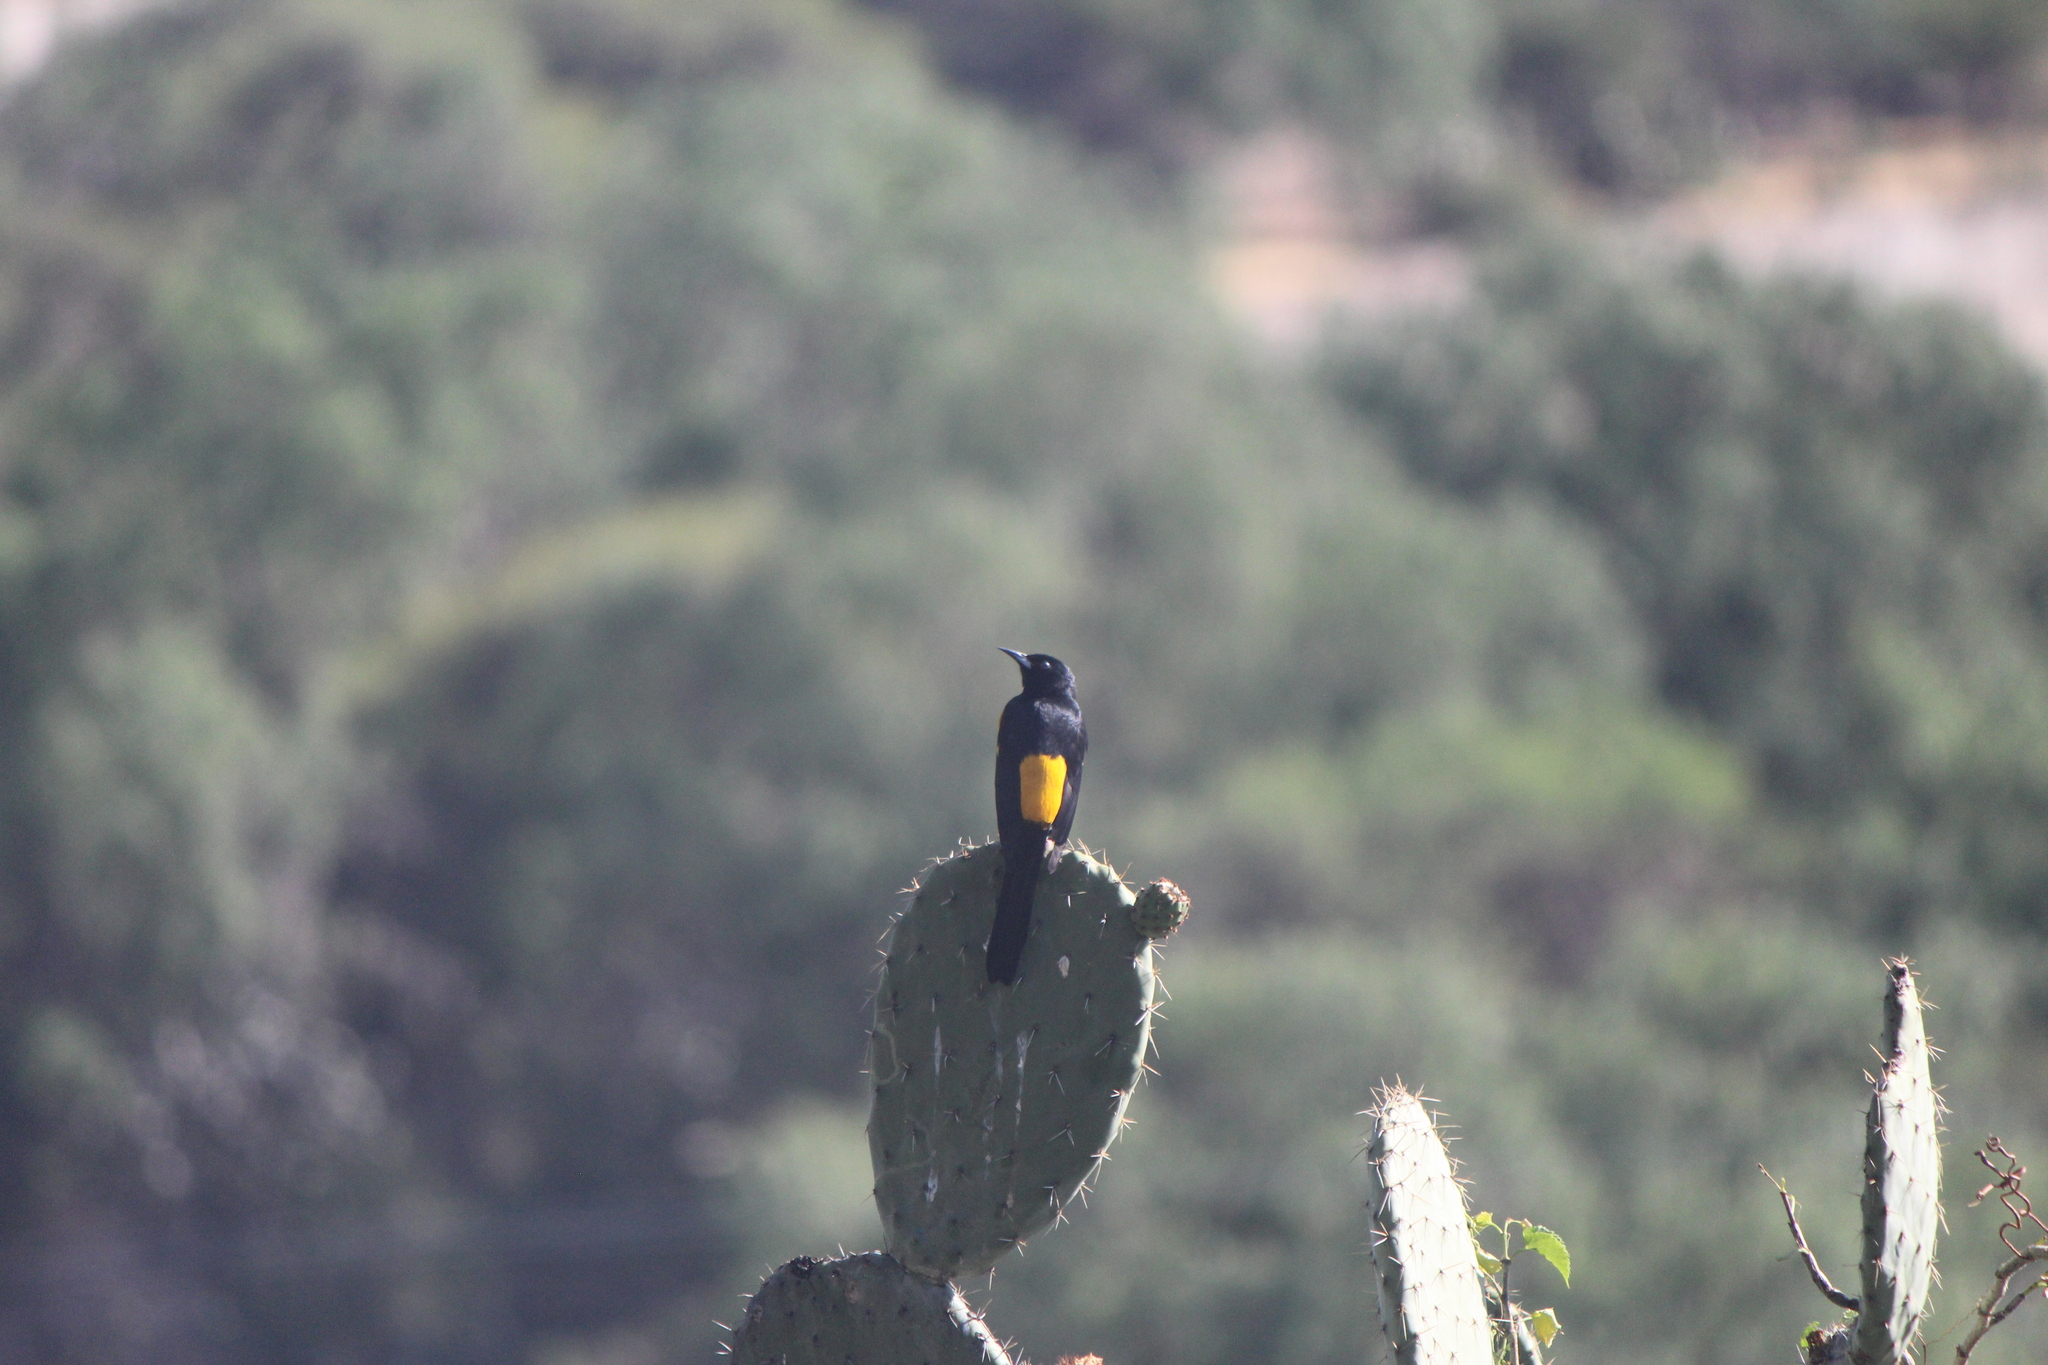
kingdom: Animalia
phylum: Chordata
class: Aves
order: Passeriformes
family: Icteridae
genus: Icterus
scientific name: Icterus wagleri
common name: Black-vented oriole
